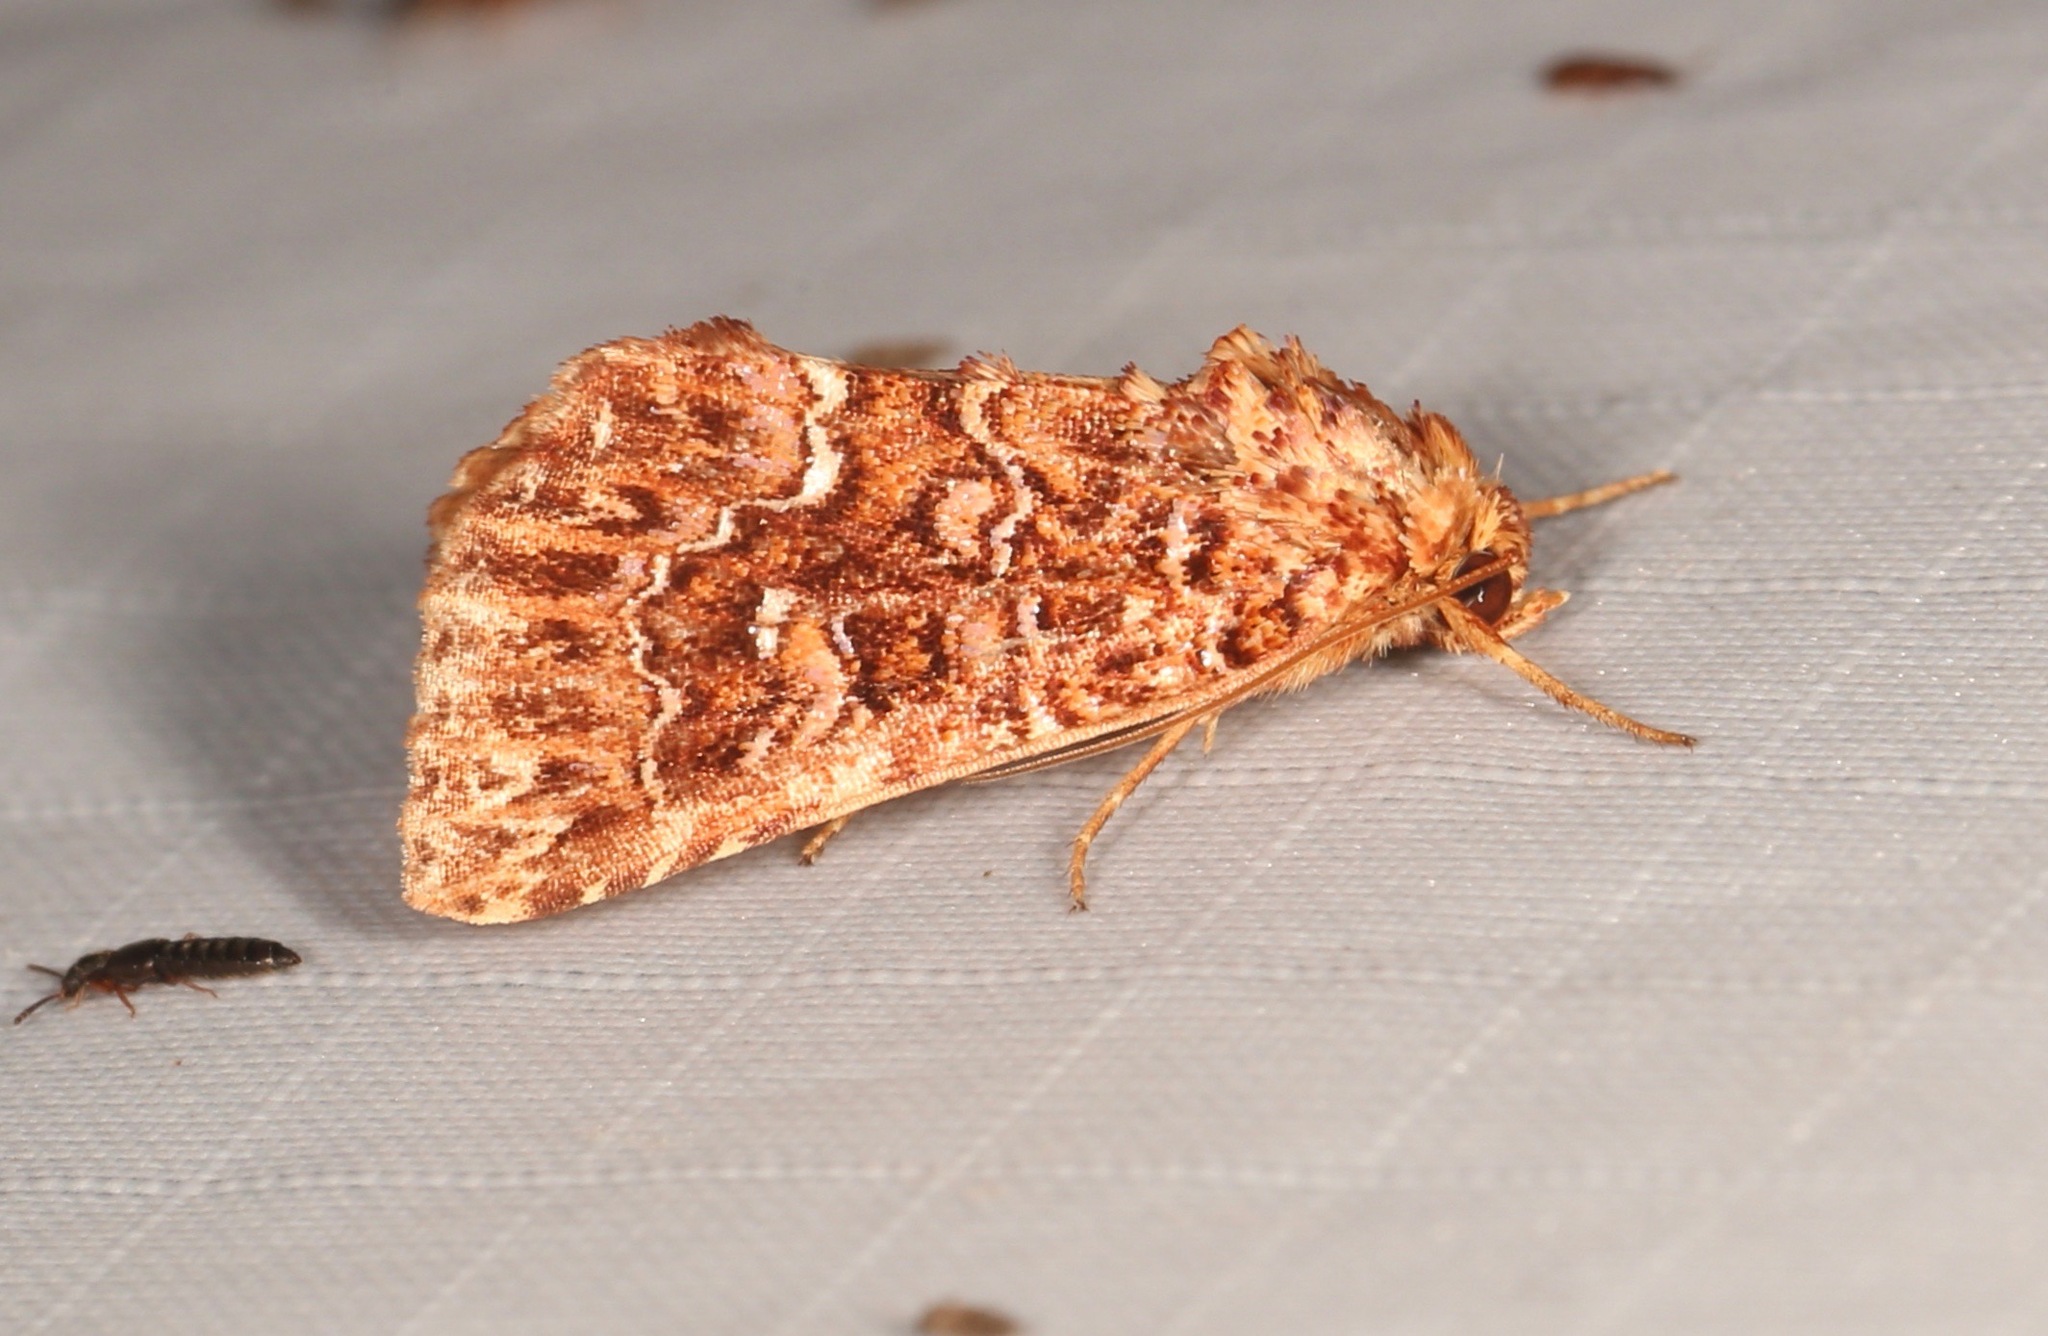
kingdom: Animalia
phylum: Arthropoda
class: Insecta
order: Lepidoptera
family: Noctuidae
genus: Callopistria
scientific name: Callopistria granitosa
